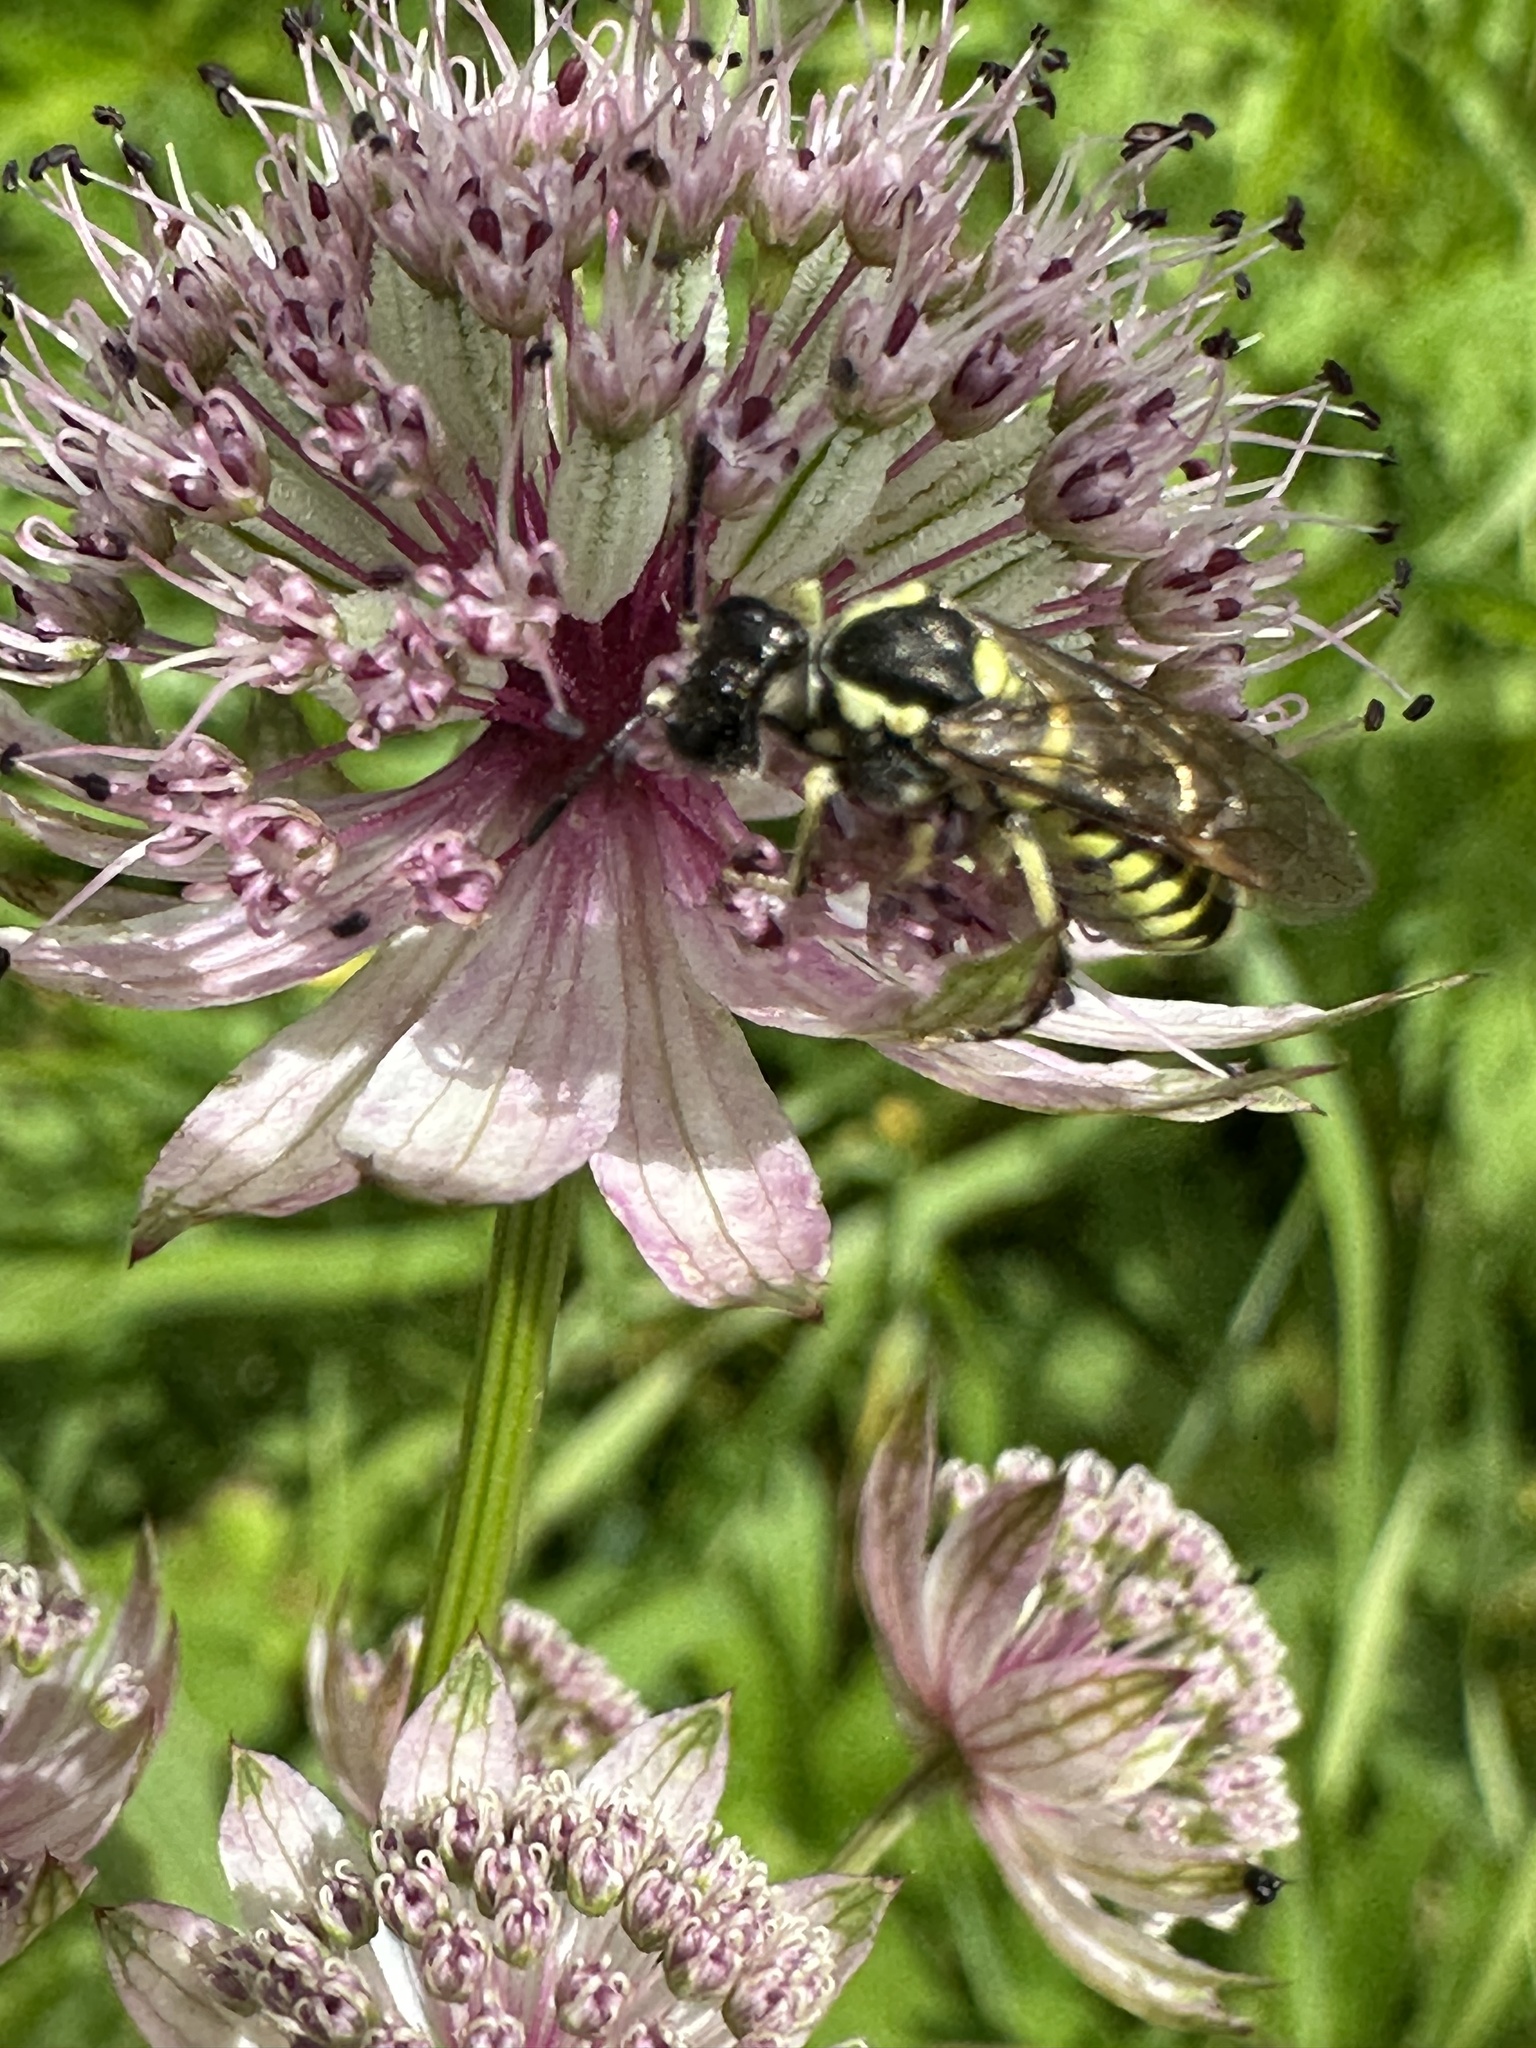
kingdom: Animalia
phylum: Arthropoda
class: Insecta
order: Hymenoptera
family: Tenthredinidae
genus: Tenthredo
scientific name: Tenthredo notha
